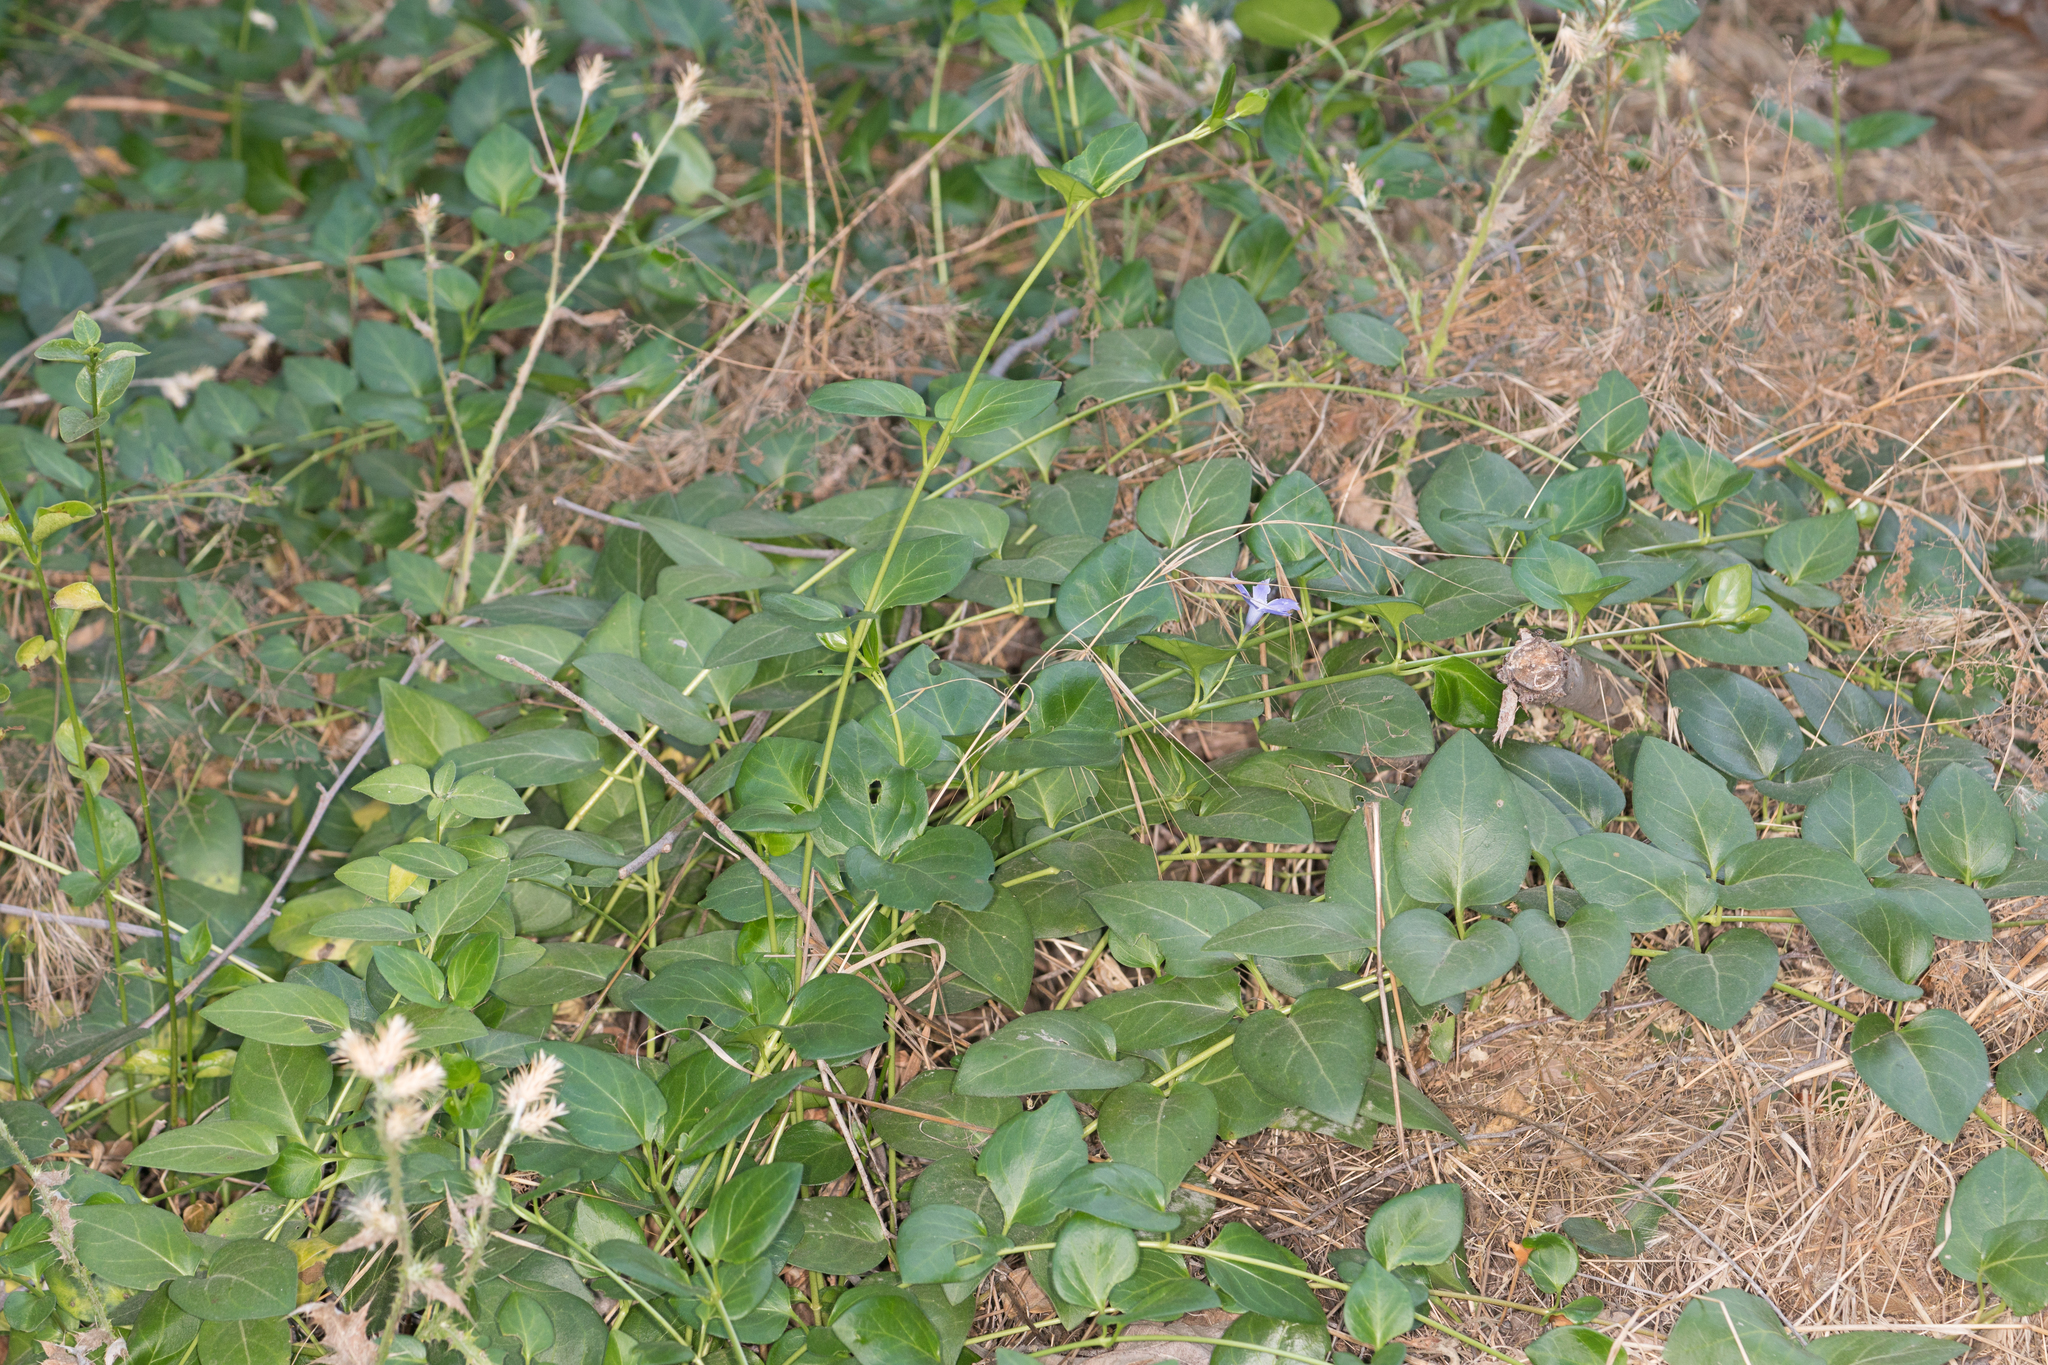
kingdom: Plantae
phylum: Tracheophyta
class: Magnoliopsida
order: Gentianales
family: Apocynaceae
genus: Vinca
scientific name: Vinca major
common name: Greater periwinkle
